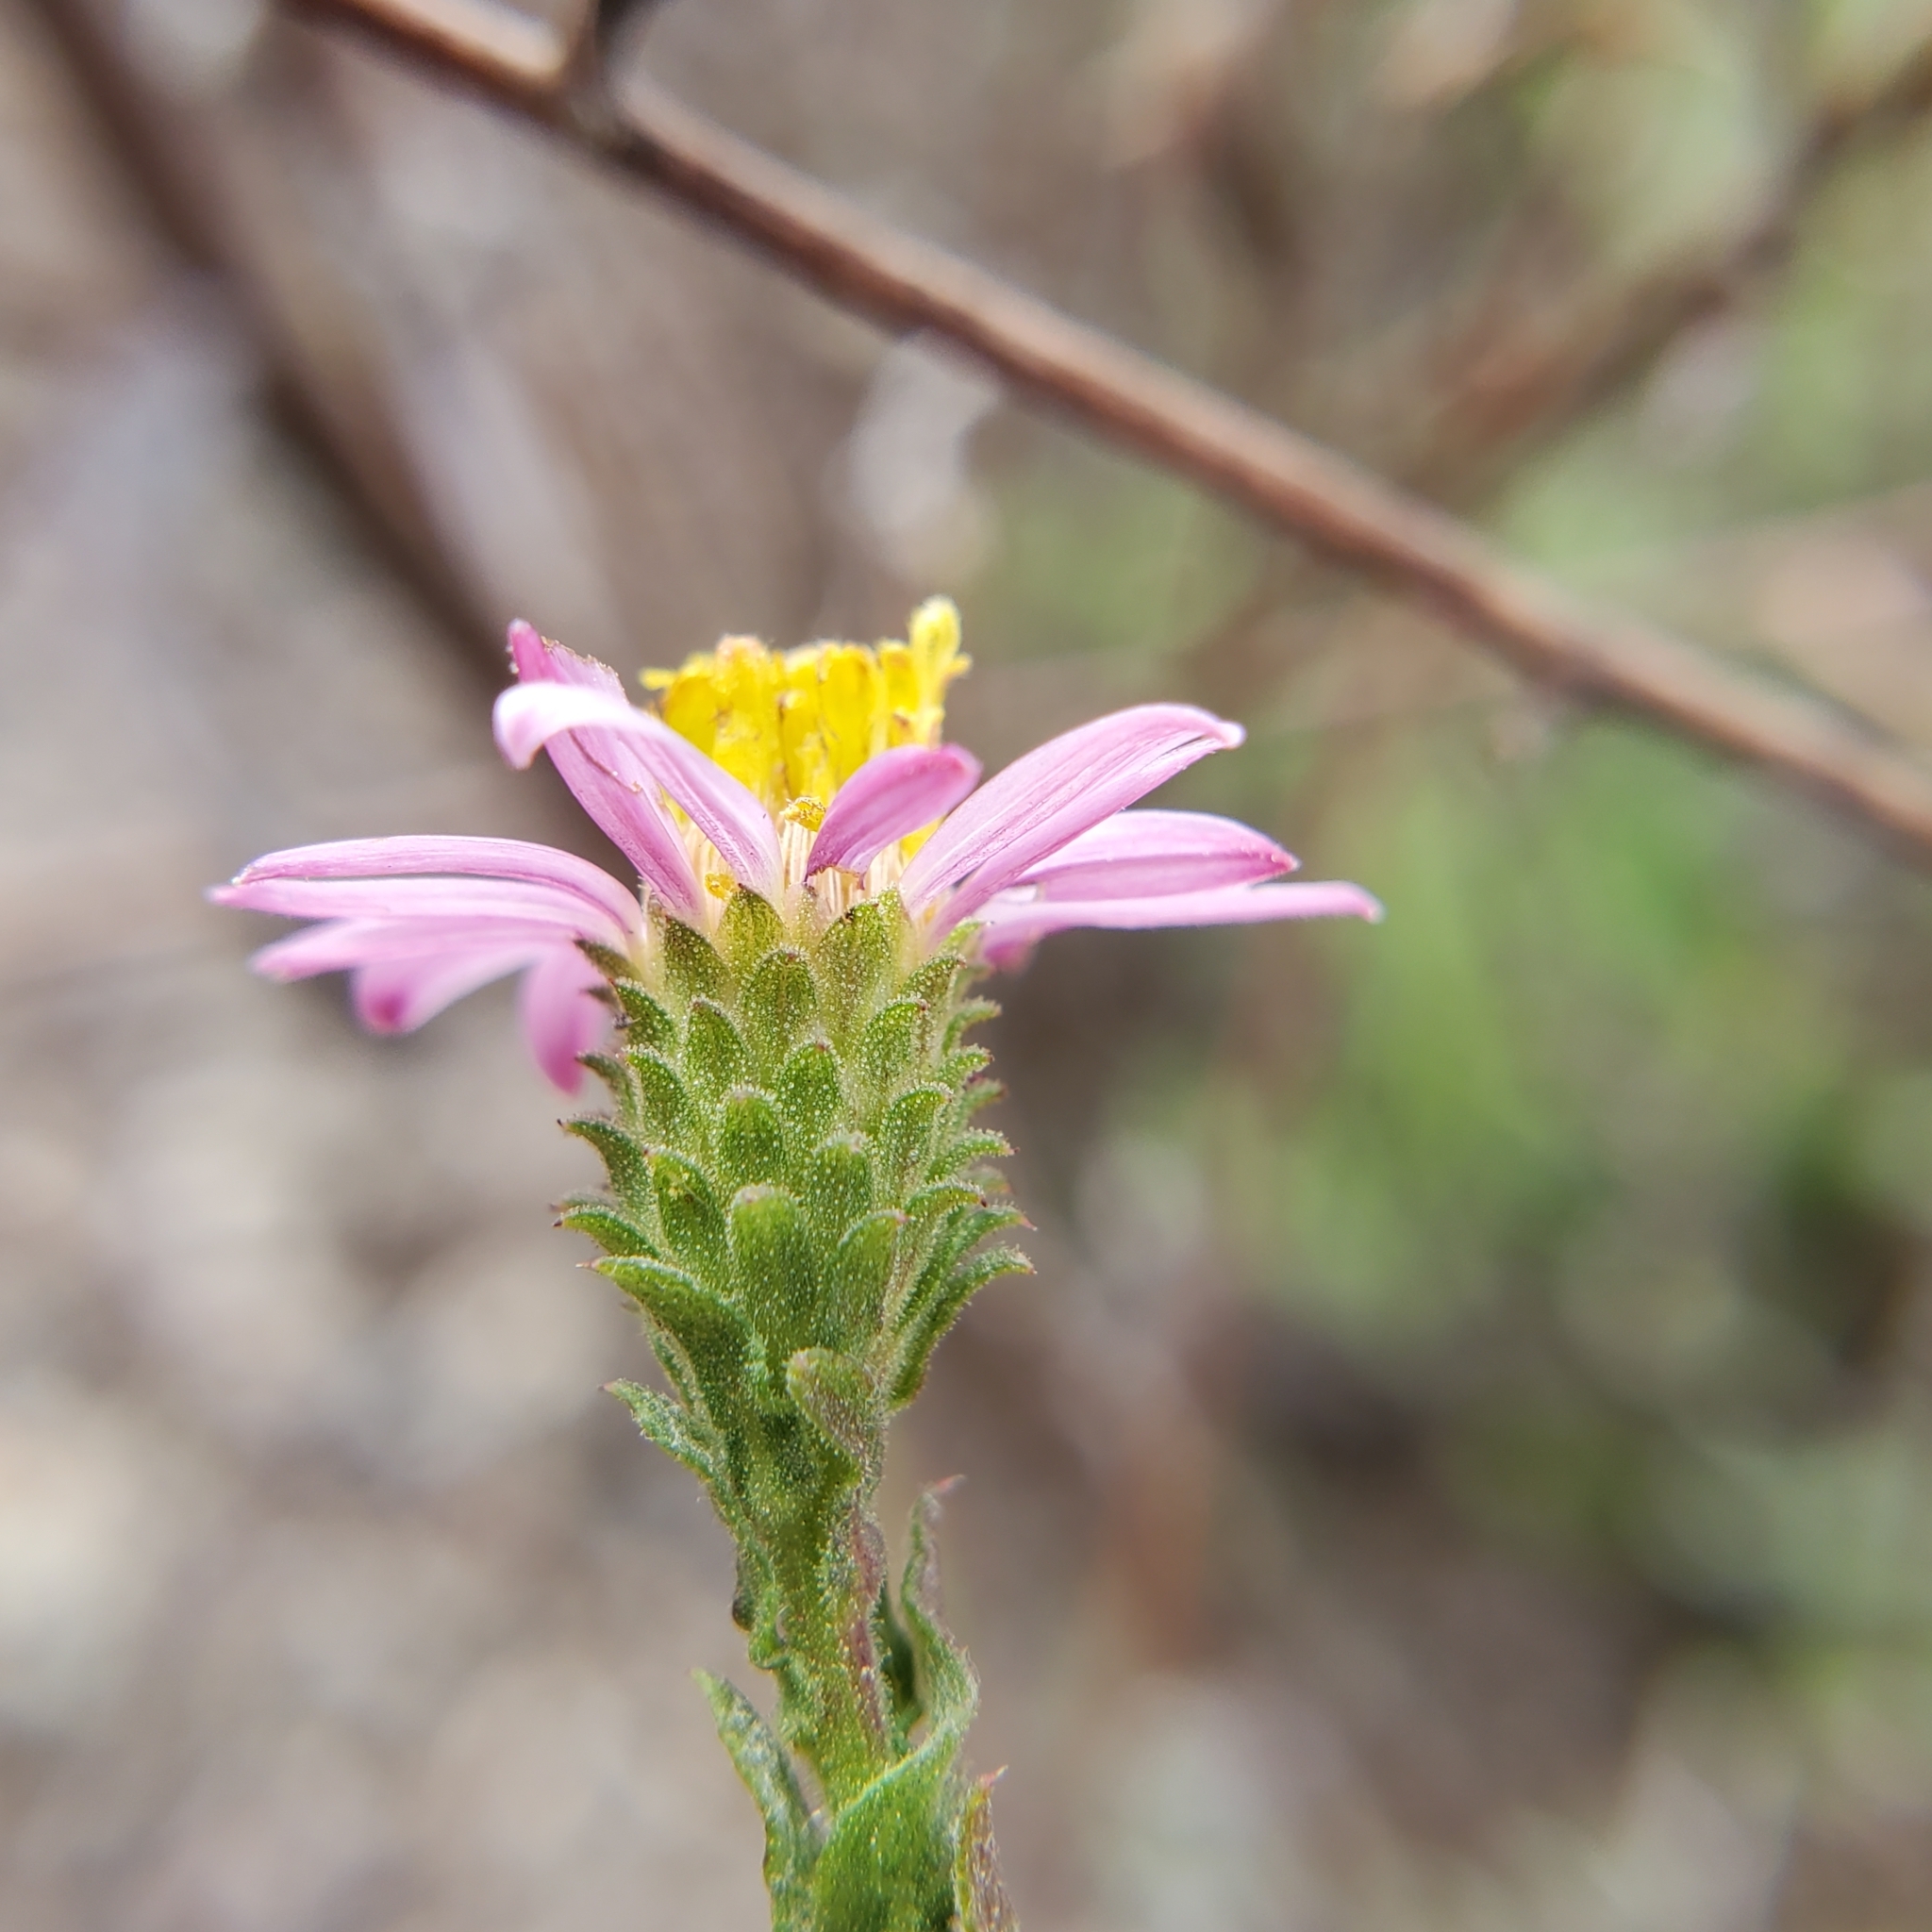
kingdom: Plantae
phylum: Tracheophyta
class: Magnoliopsida
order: Asterales
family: Asteraceae
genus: Corethrogyne
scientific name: Corethrogyne filaginifolia
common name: Sand-aster
